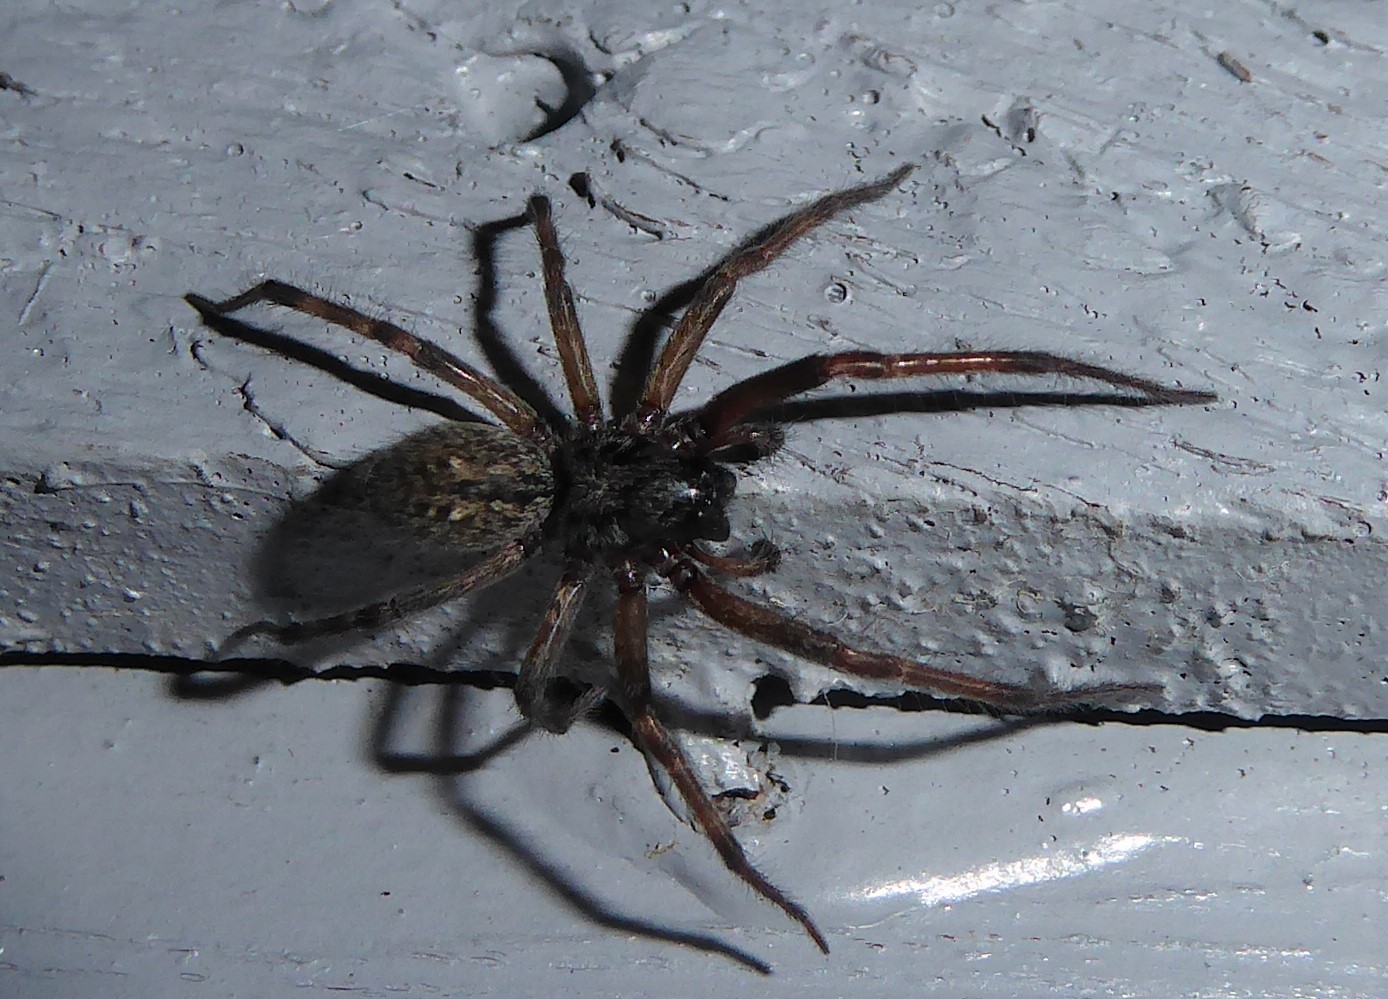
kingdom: Animalia
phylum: Arthropoda
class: Arachnida
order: Araneae
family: Desidae
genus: Badumna
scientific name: Badumna longinqua
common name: Gray house spider
